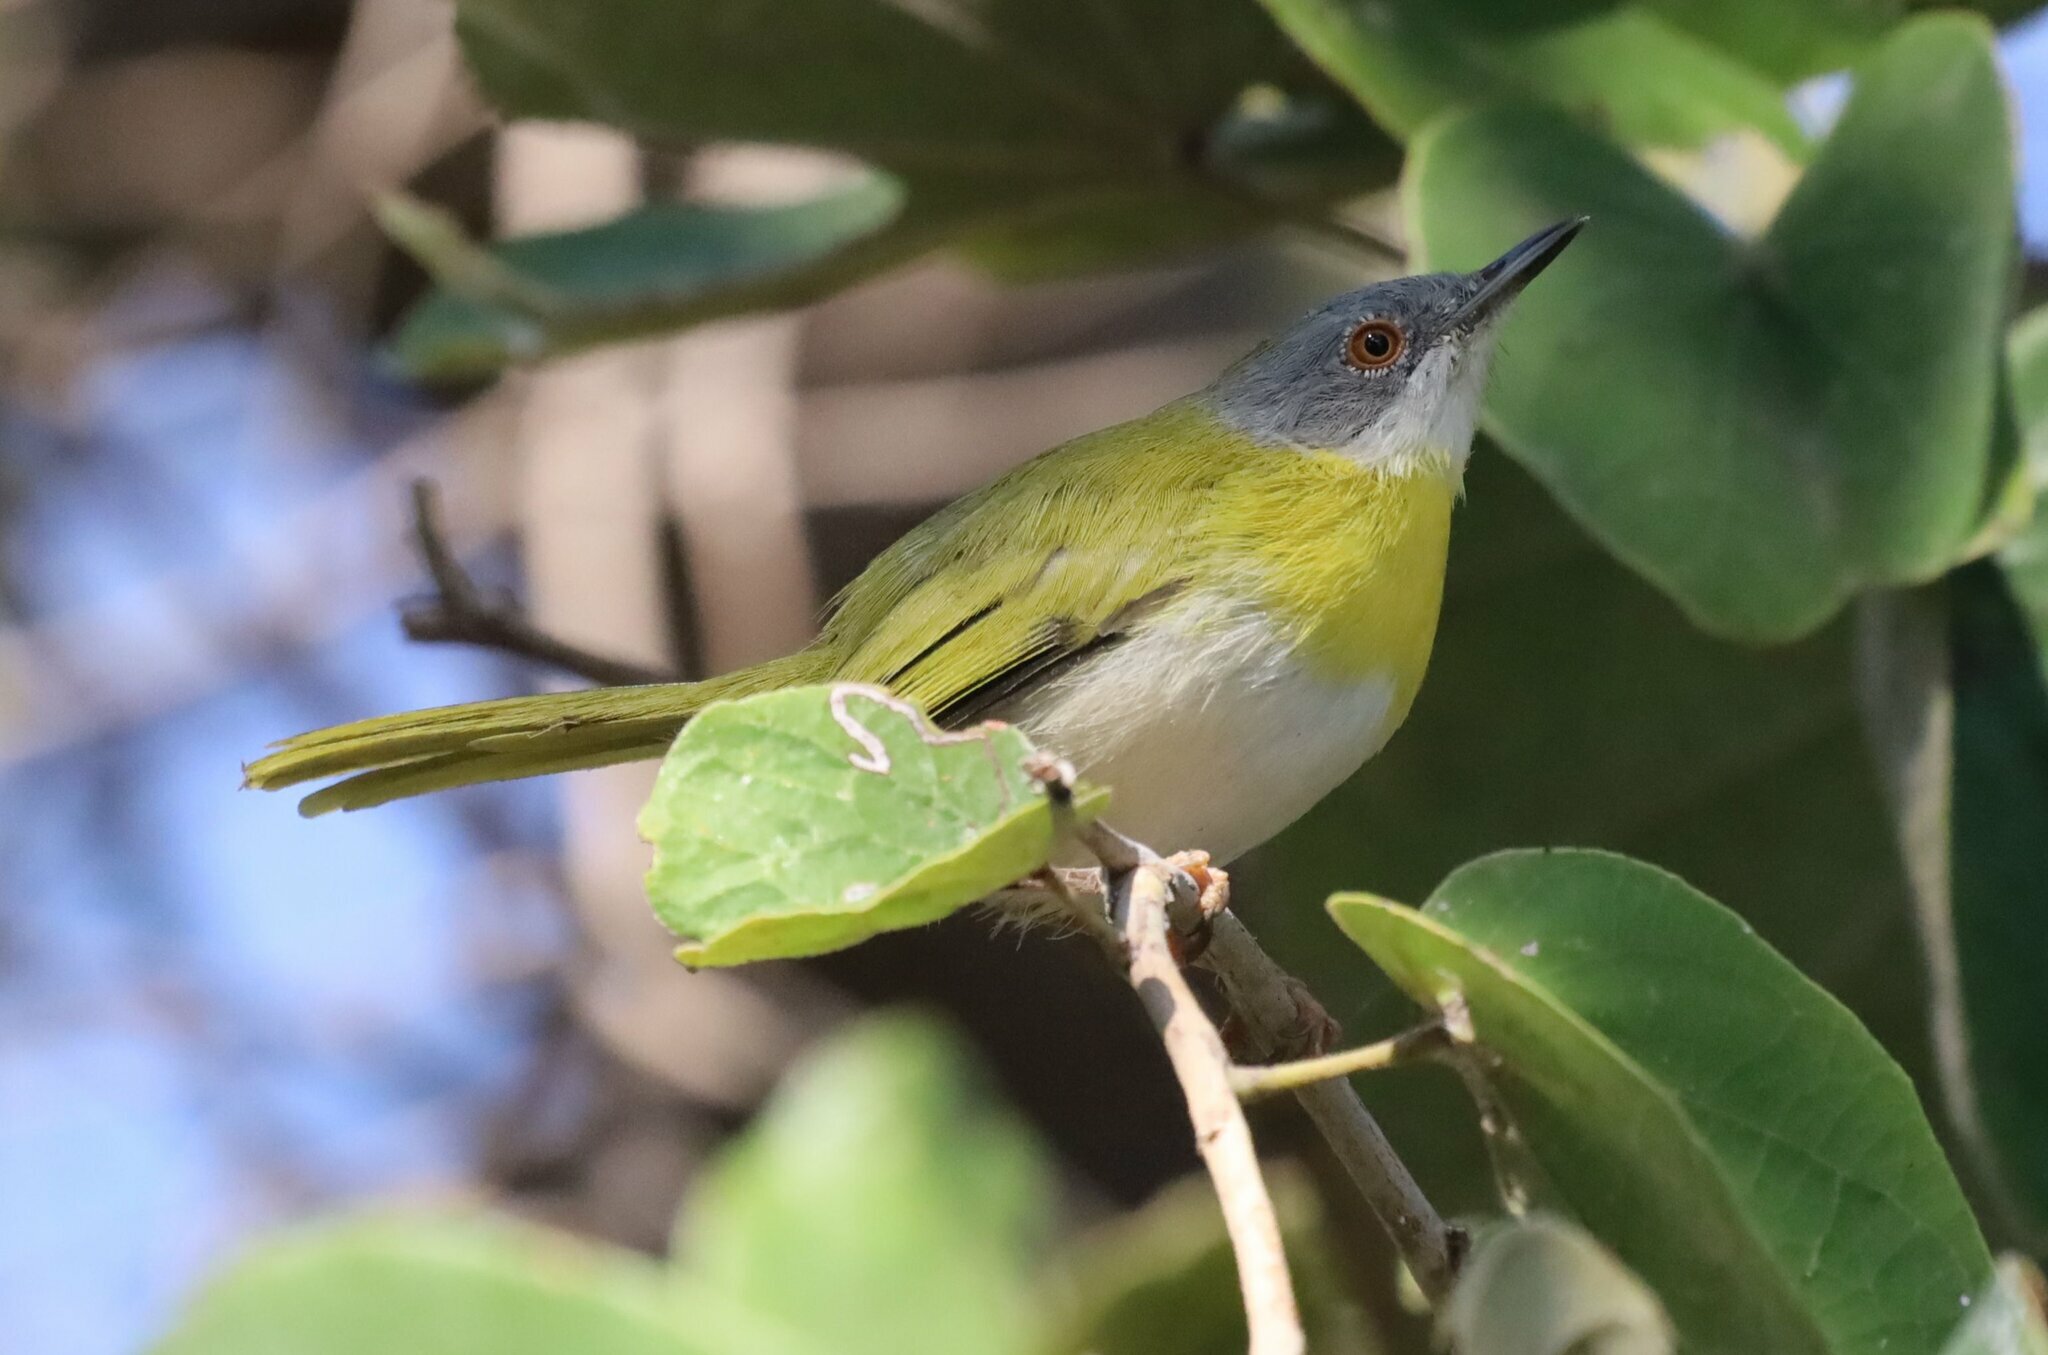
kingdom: Animalia
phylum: Chordata
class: Aves
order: Passeriformes
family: Cisticolidae
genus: Apalis
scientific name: Apalis flavida
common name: Yellow-breasted apalis
